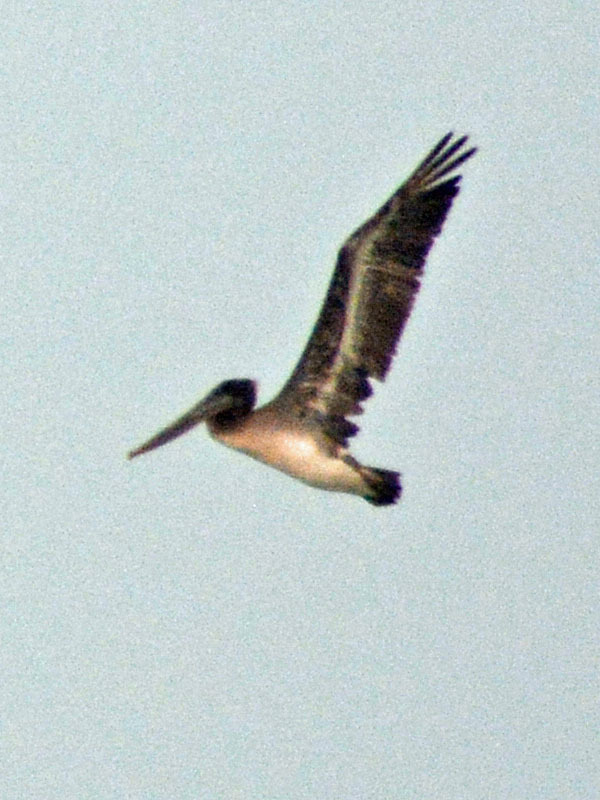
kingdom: Animalia
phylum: Chordata
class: Aves
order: Pelecaniformes
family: Pelecanidae
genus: Pelecanus
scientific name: Pelecanus occidentalis
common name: Brown pelican
